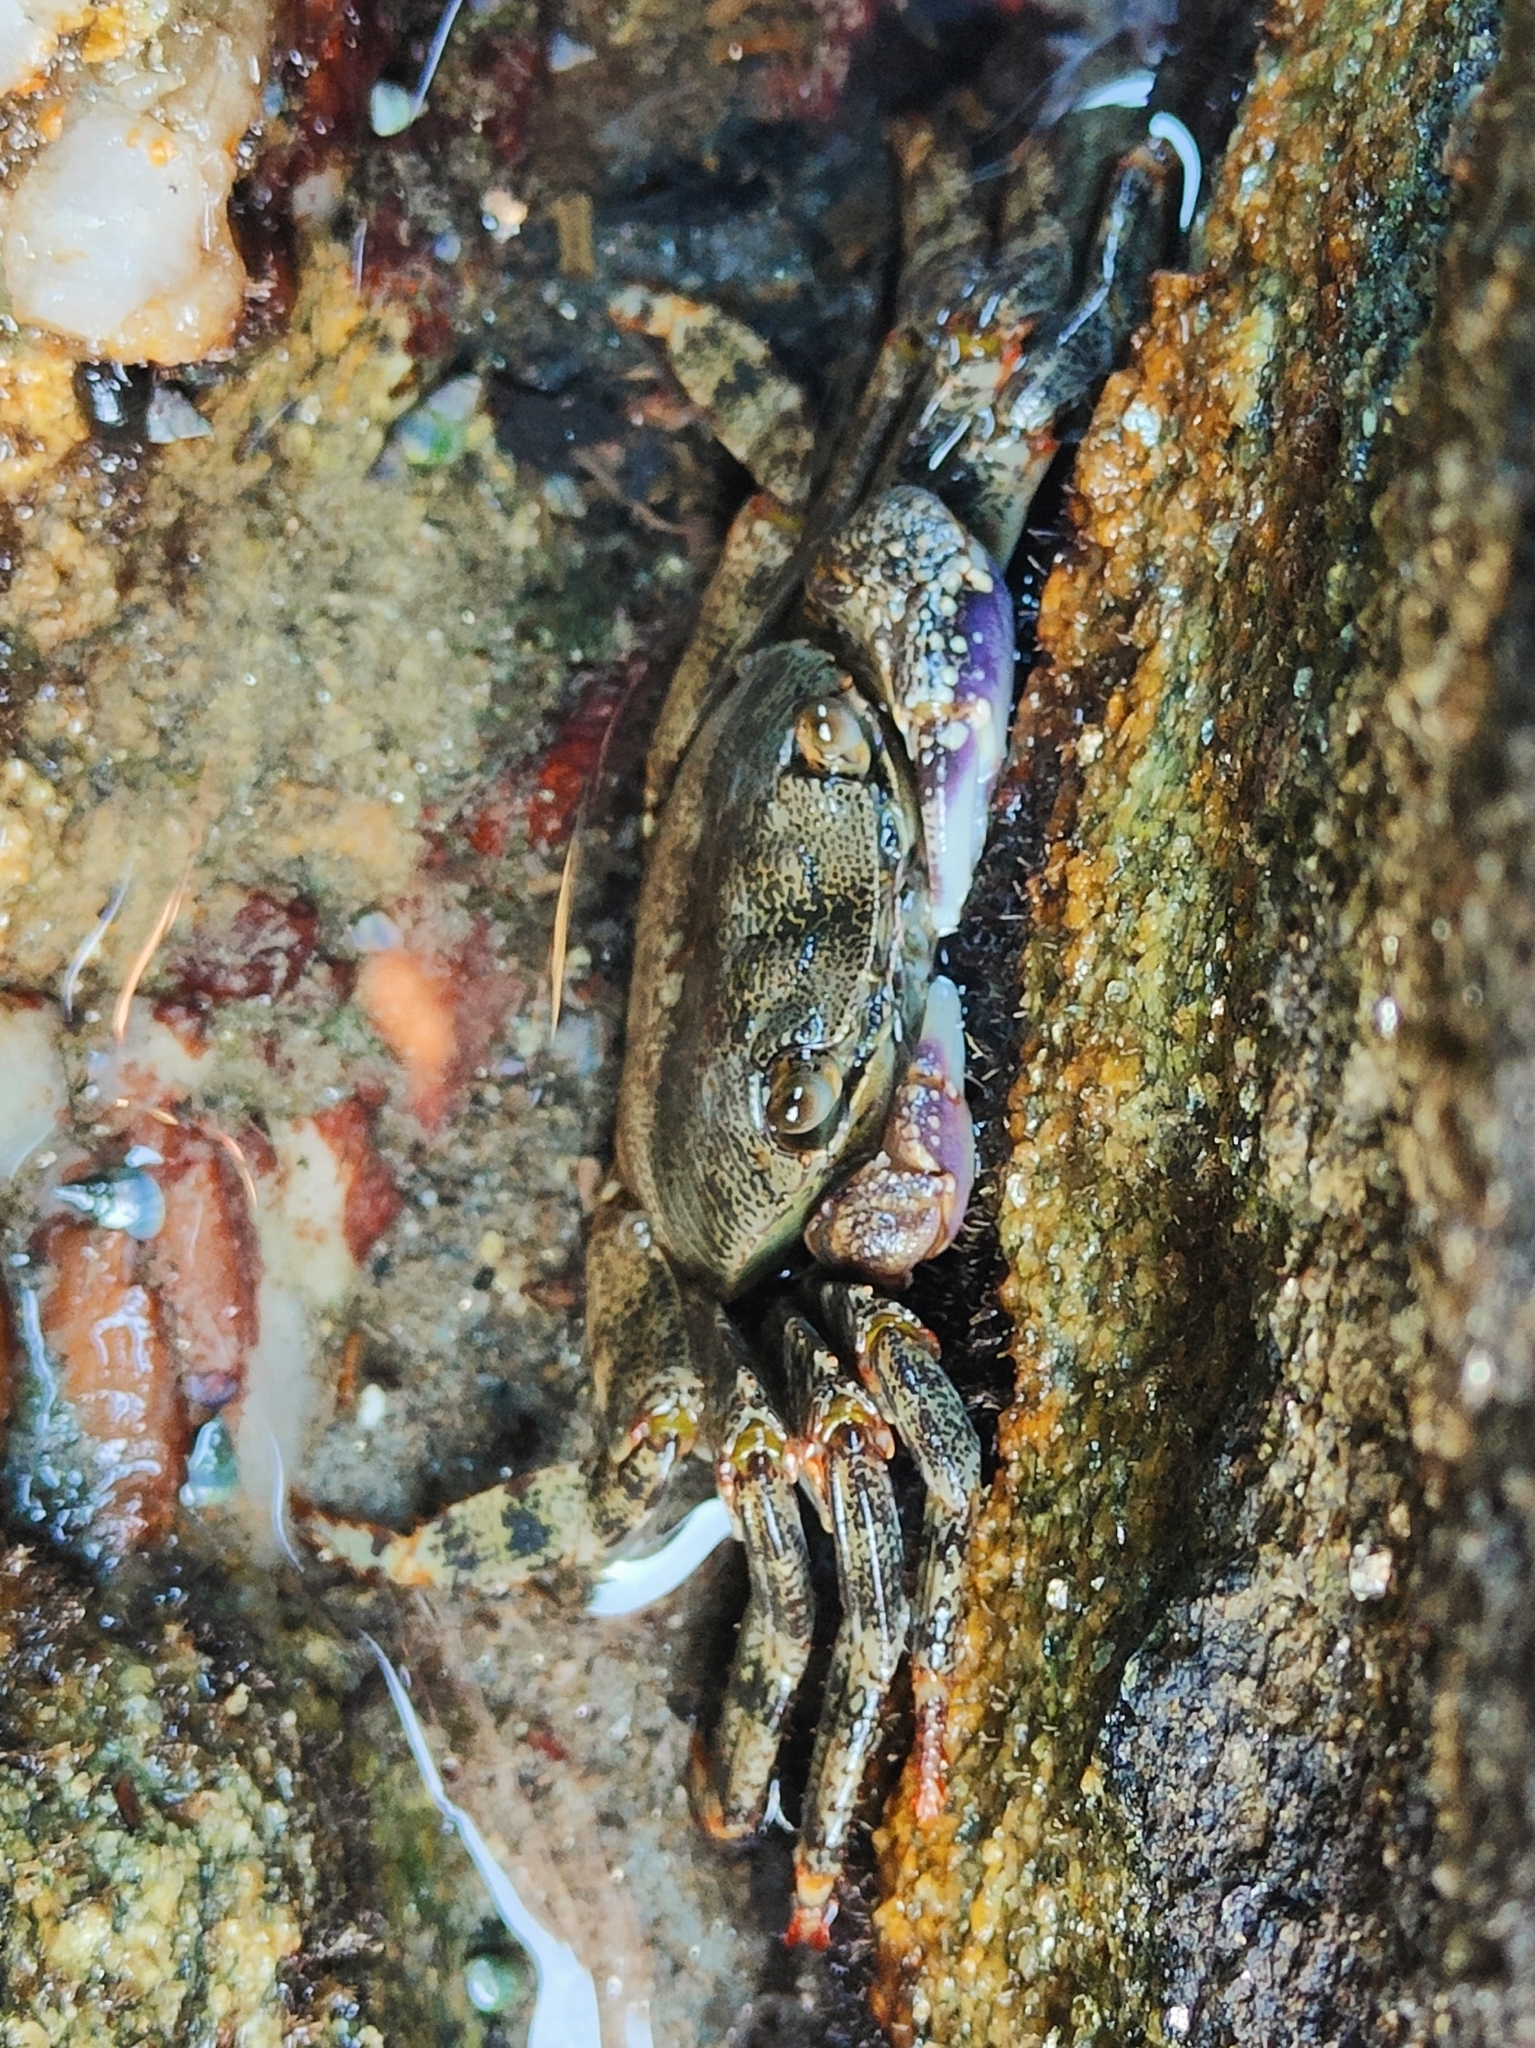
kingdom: Animalia
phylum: Arthropoda
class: Malacostraca
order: Decapoda
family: Grapsidae
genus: Leptograpsus
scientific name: Leptograpsus variegatus
